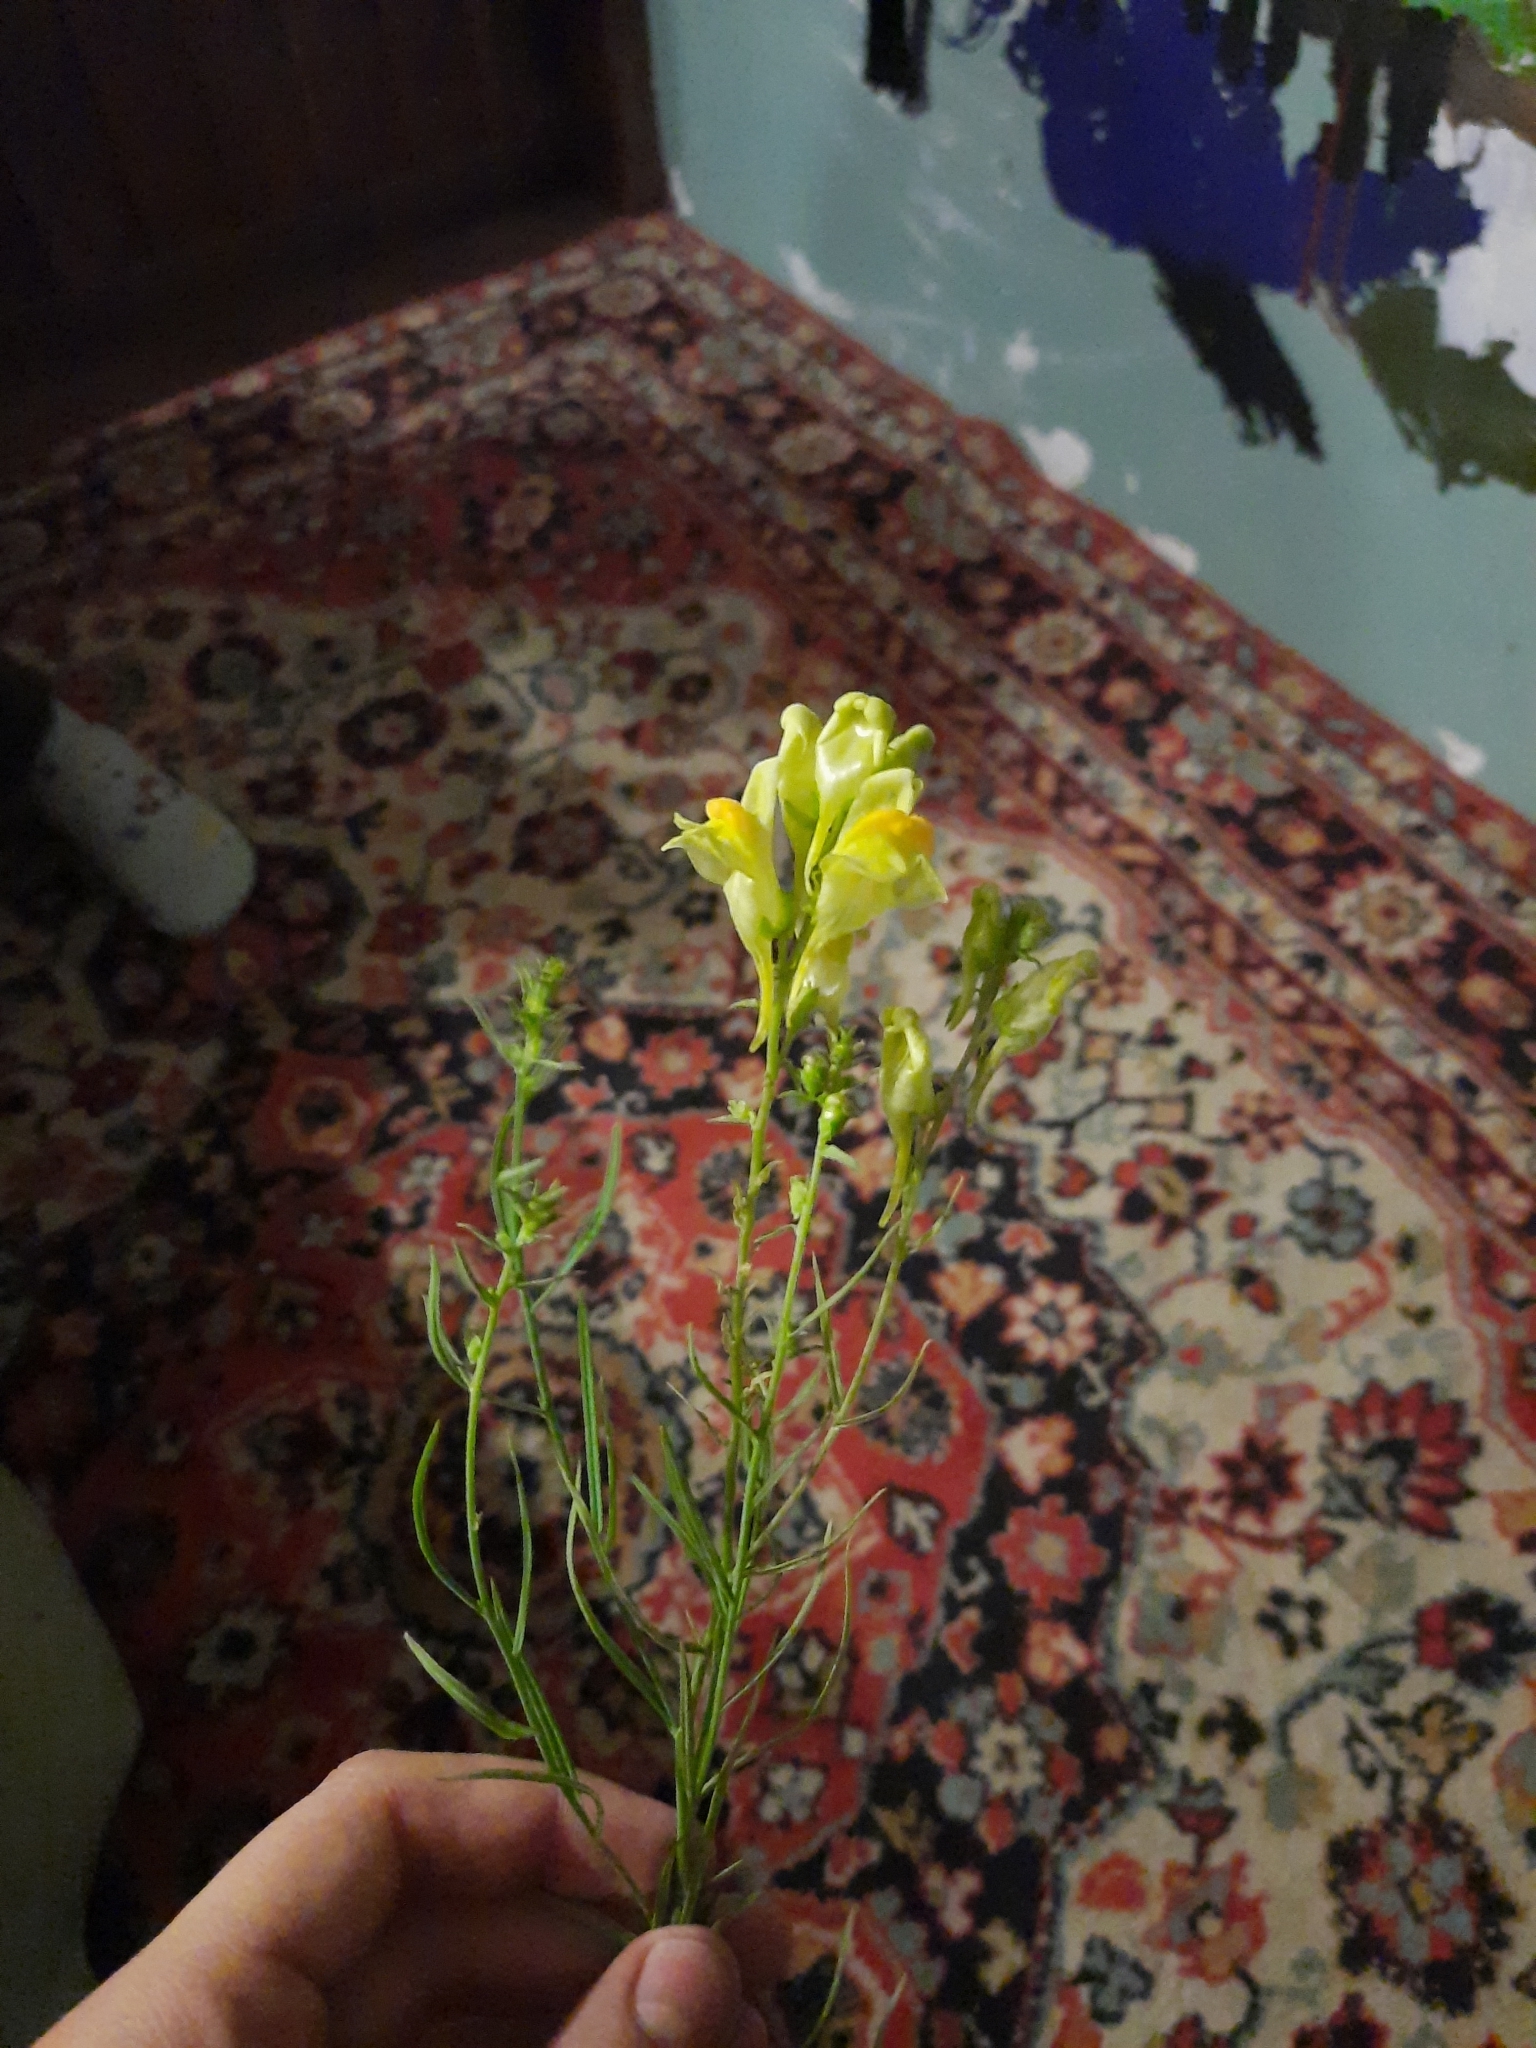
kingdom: Plantae
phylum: Tracheophyta
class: Magnoliopsida
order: Lamiales
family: Plantaginaceae
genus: Linaria
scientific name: Linaria vulgaris
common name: Butter and eggs
